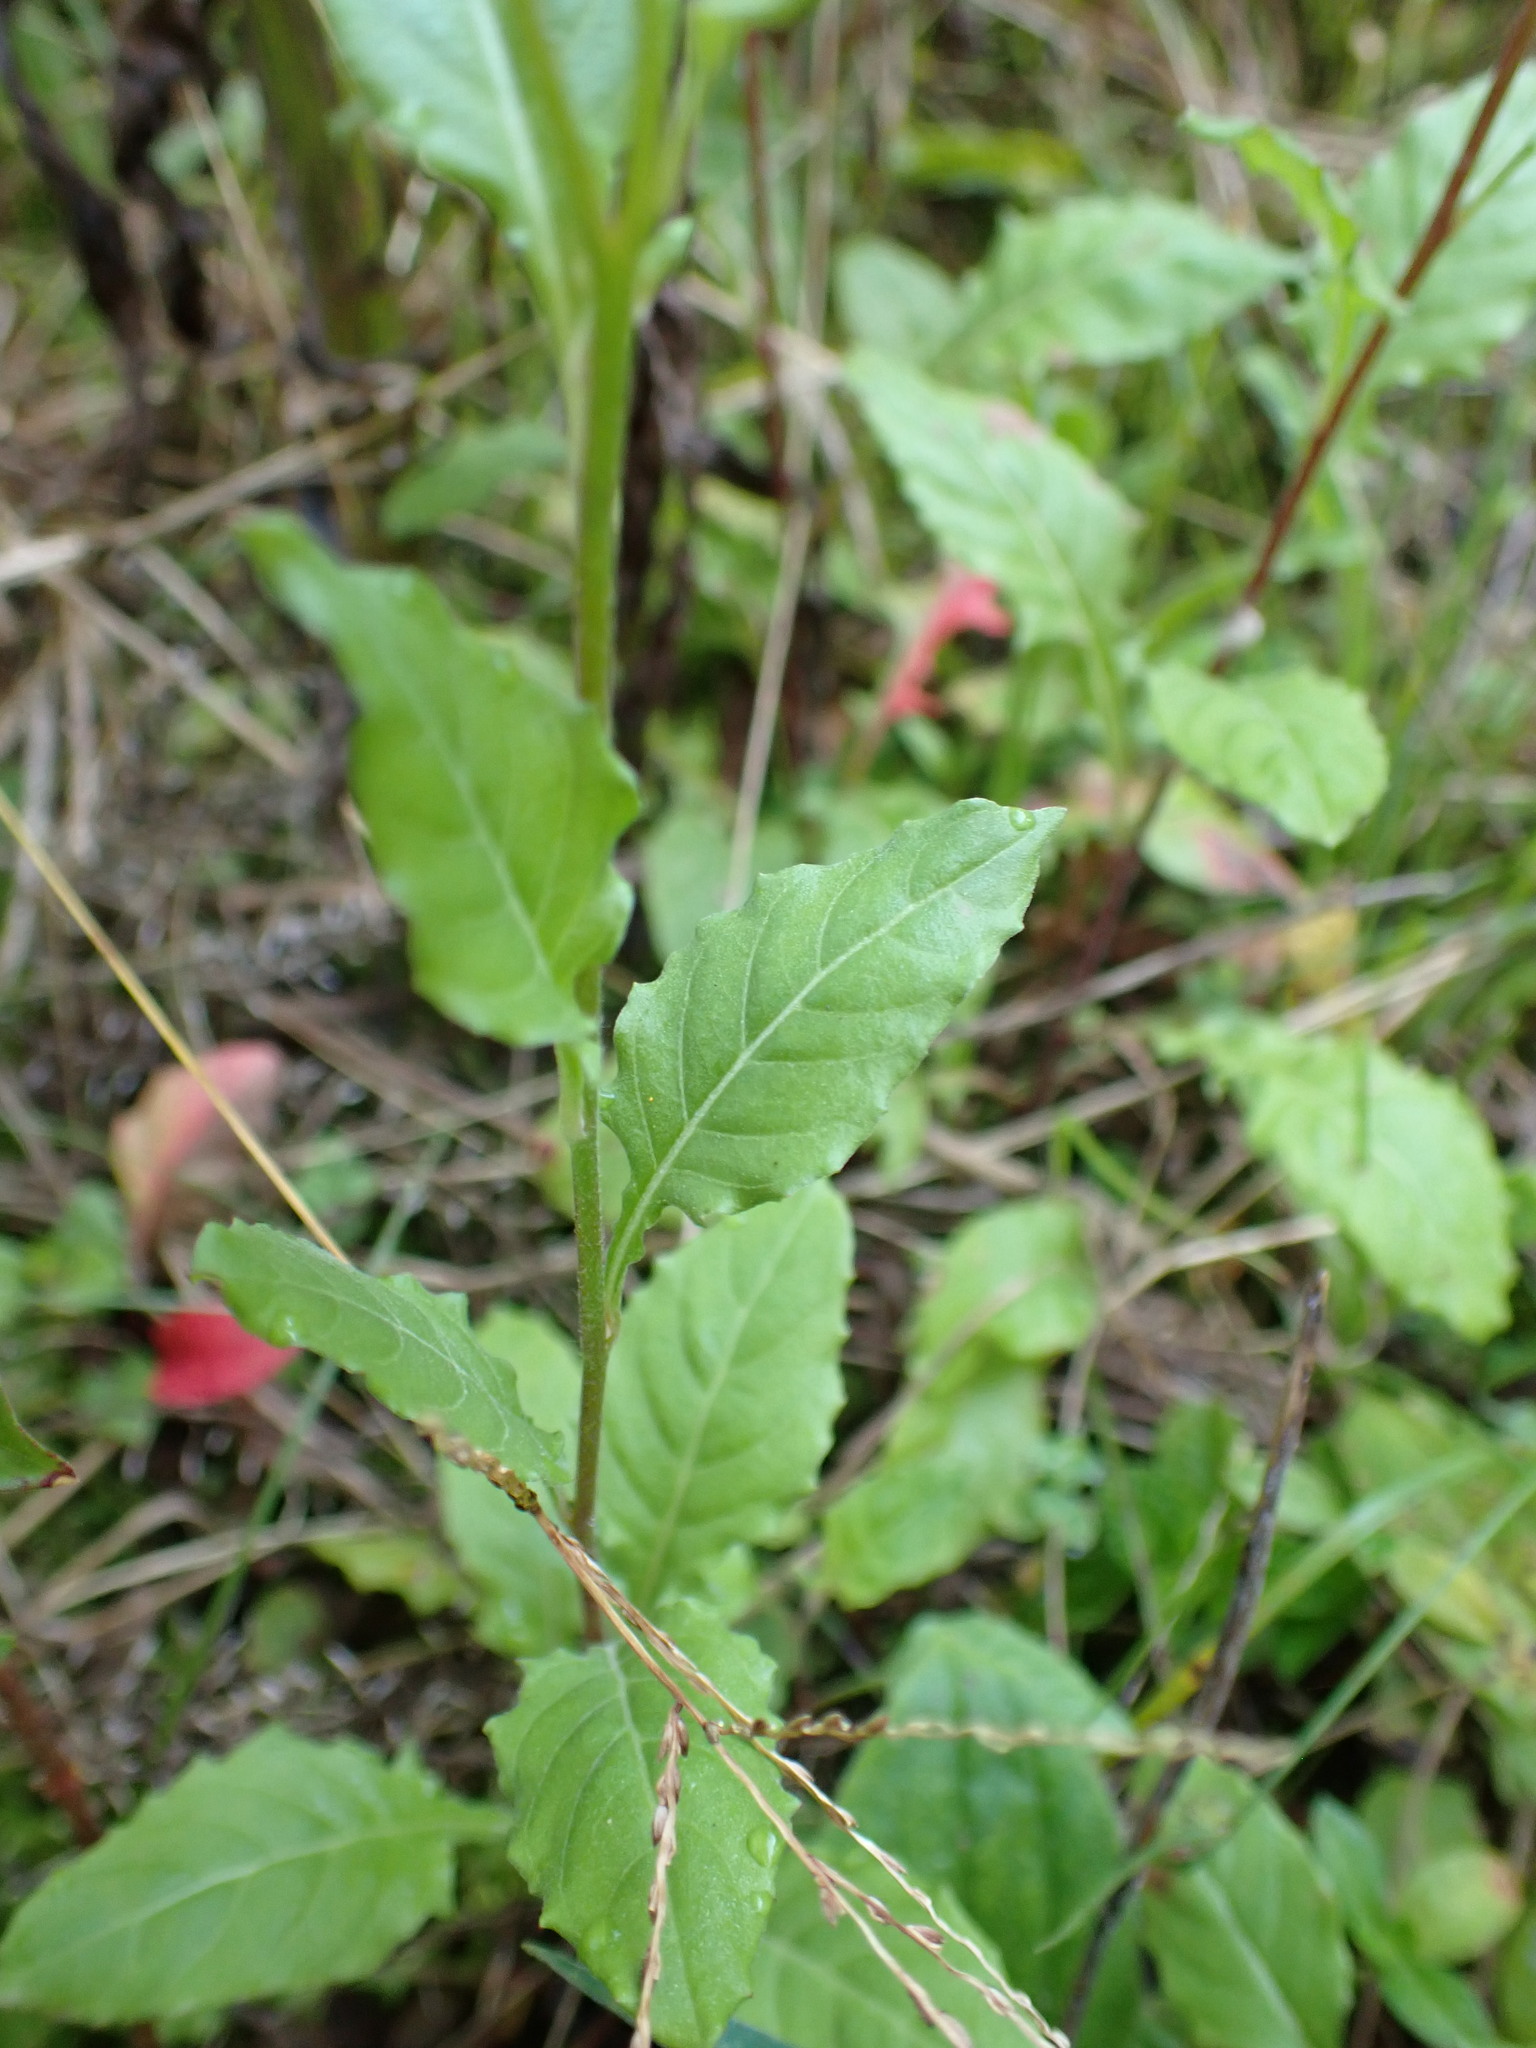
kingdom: Plantae
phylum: Tracheophyta
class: Magnoliopsida
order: Myrtales
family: Onagraceae
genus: Oenothera
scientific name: Oenothera rosea
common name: Rosy evening-primrose
